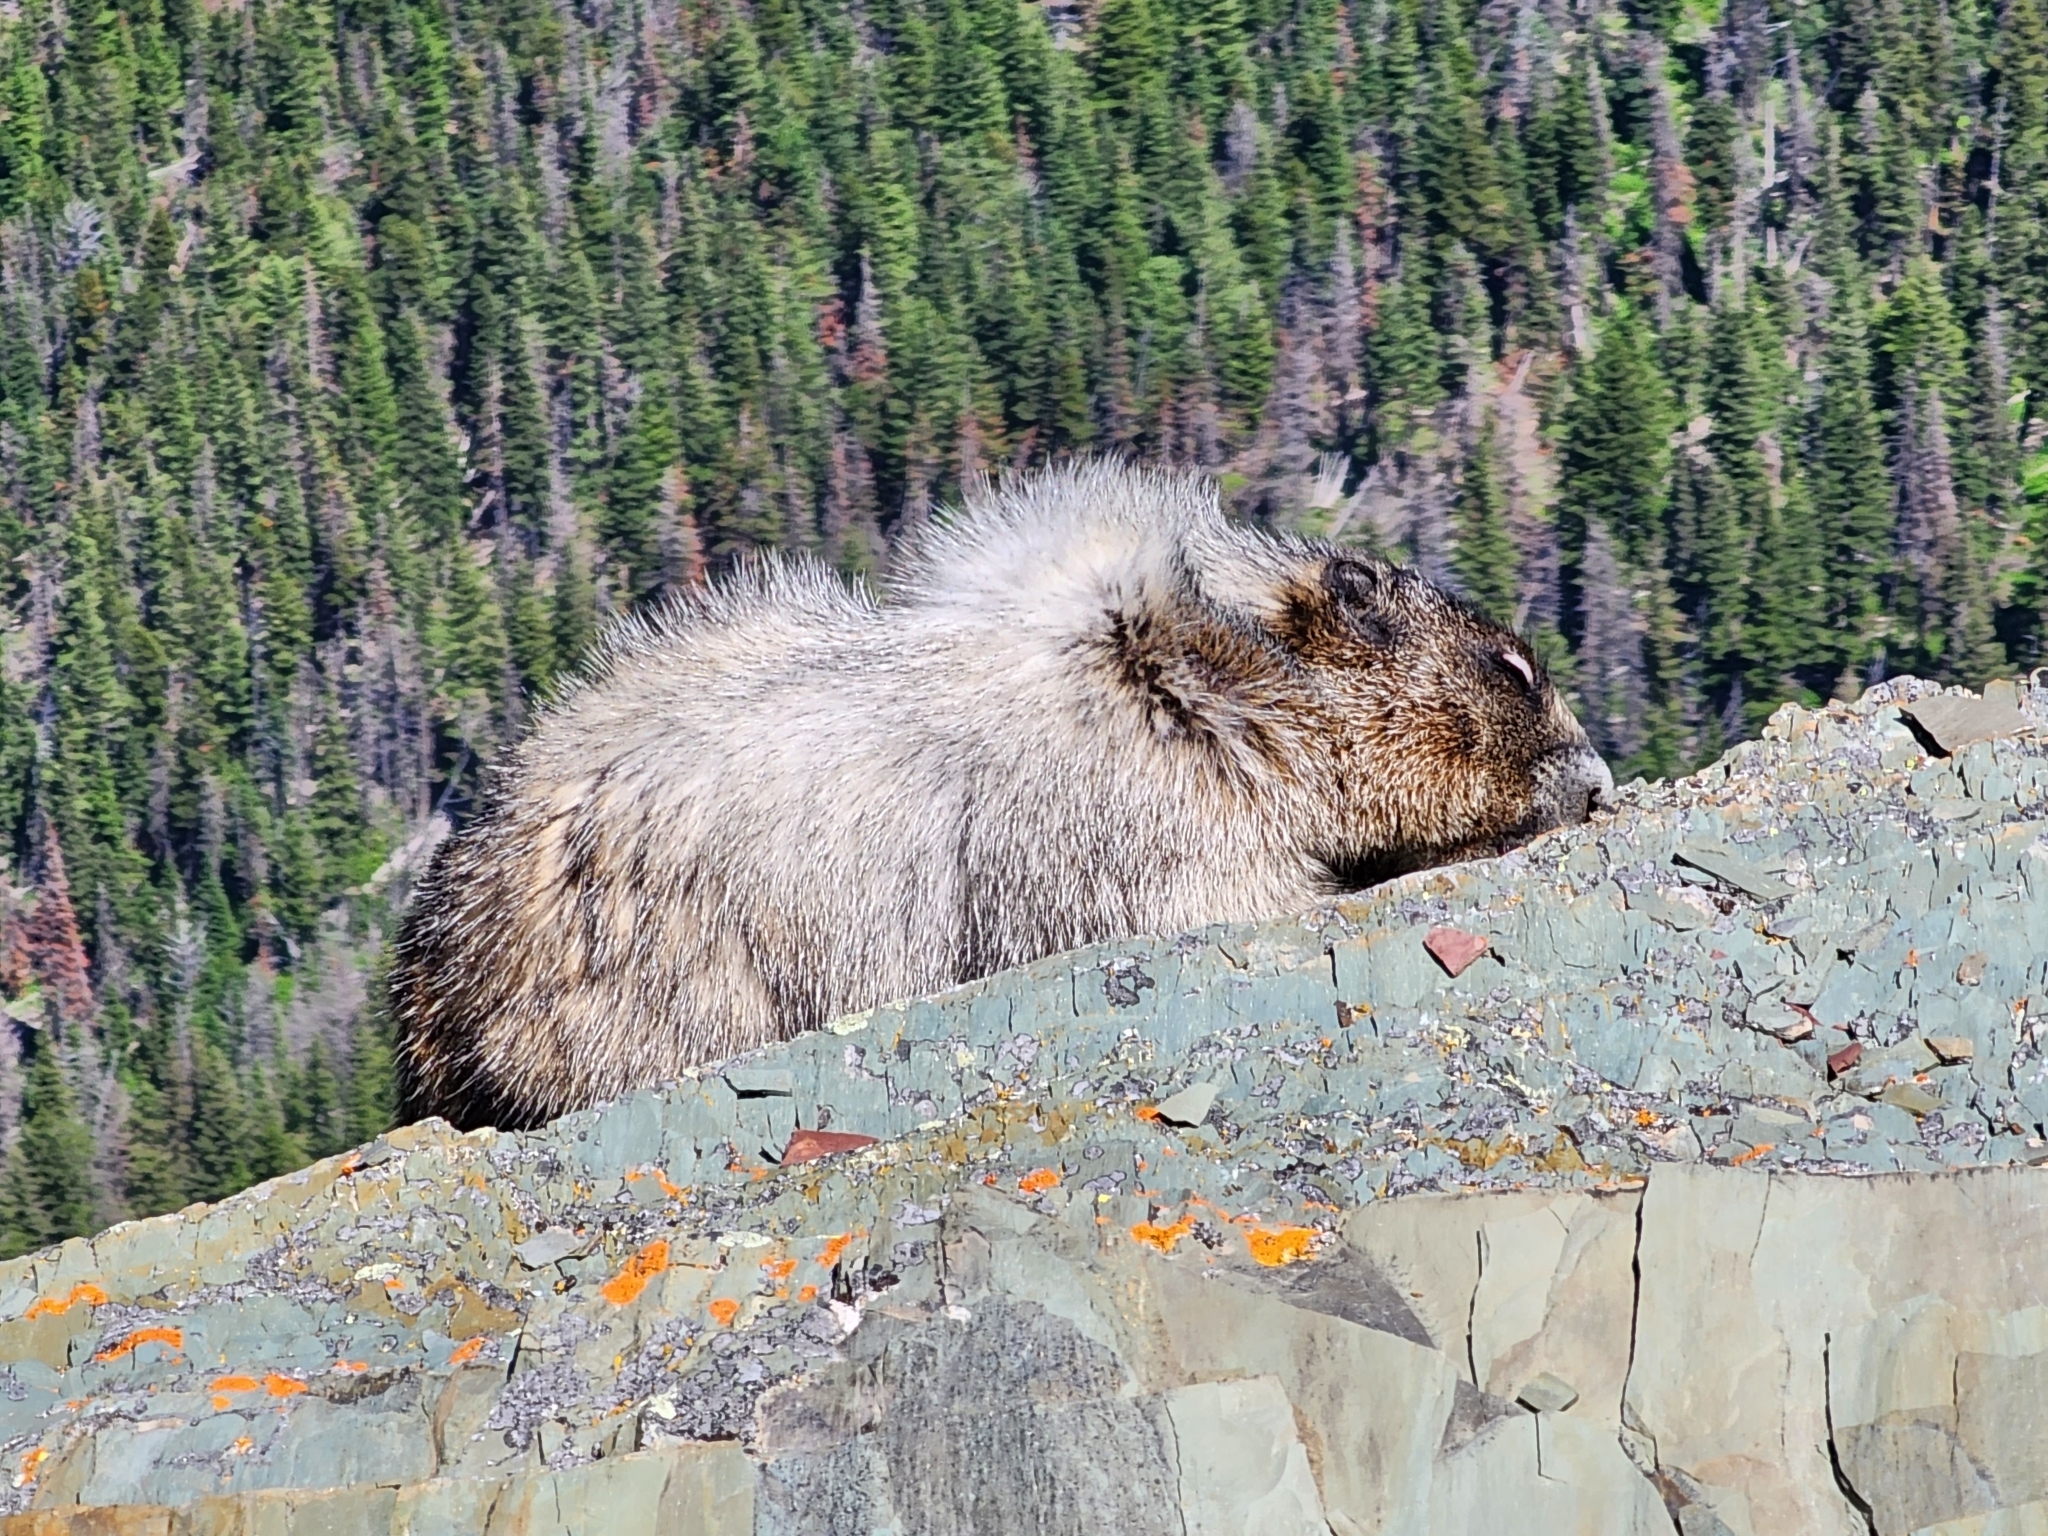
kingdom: Animalia
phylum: Chordata
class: Mammalia
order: Rodentia
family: Sciuridae
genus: Marmota
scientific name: Marmota caligata
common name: Hoary marmot
